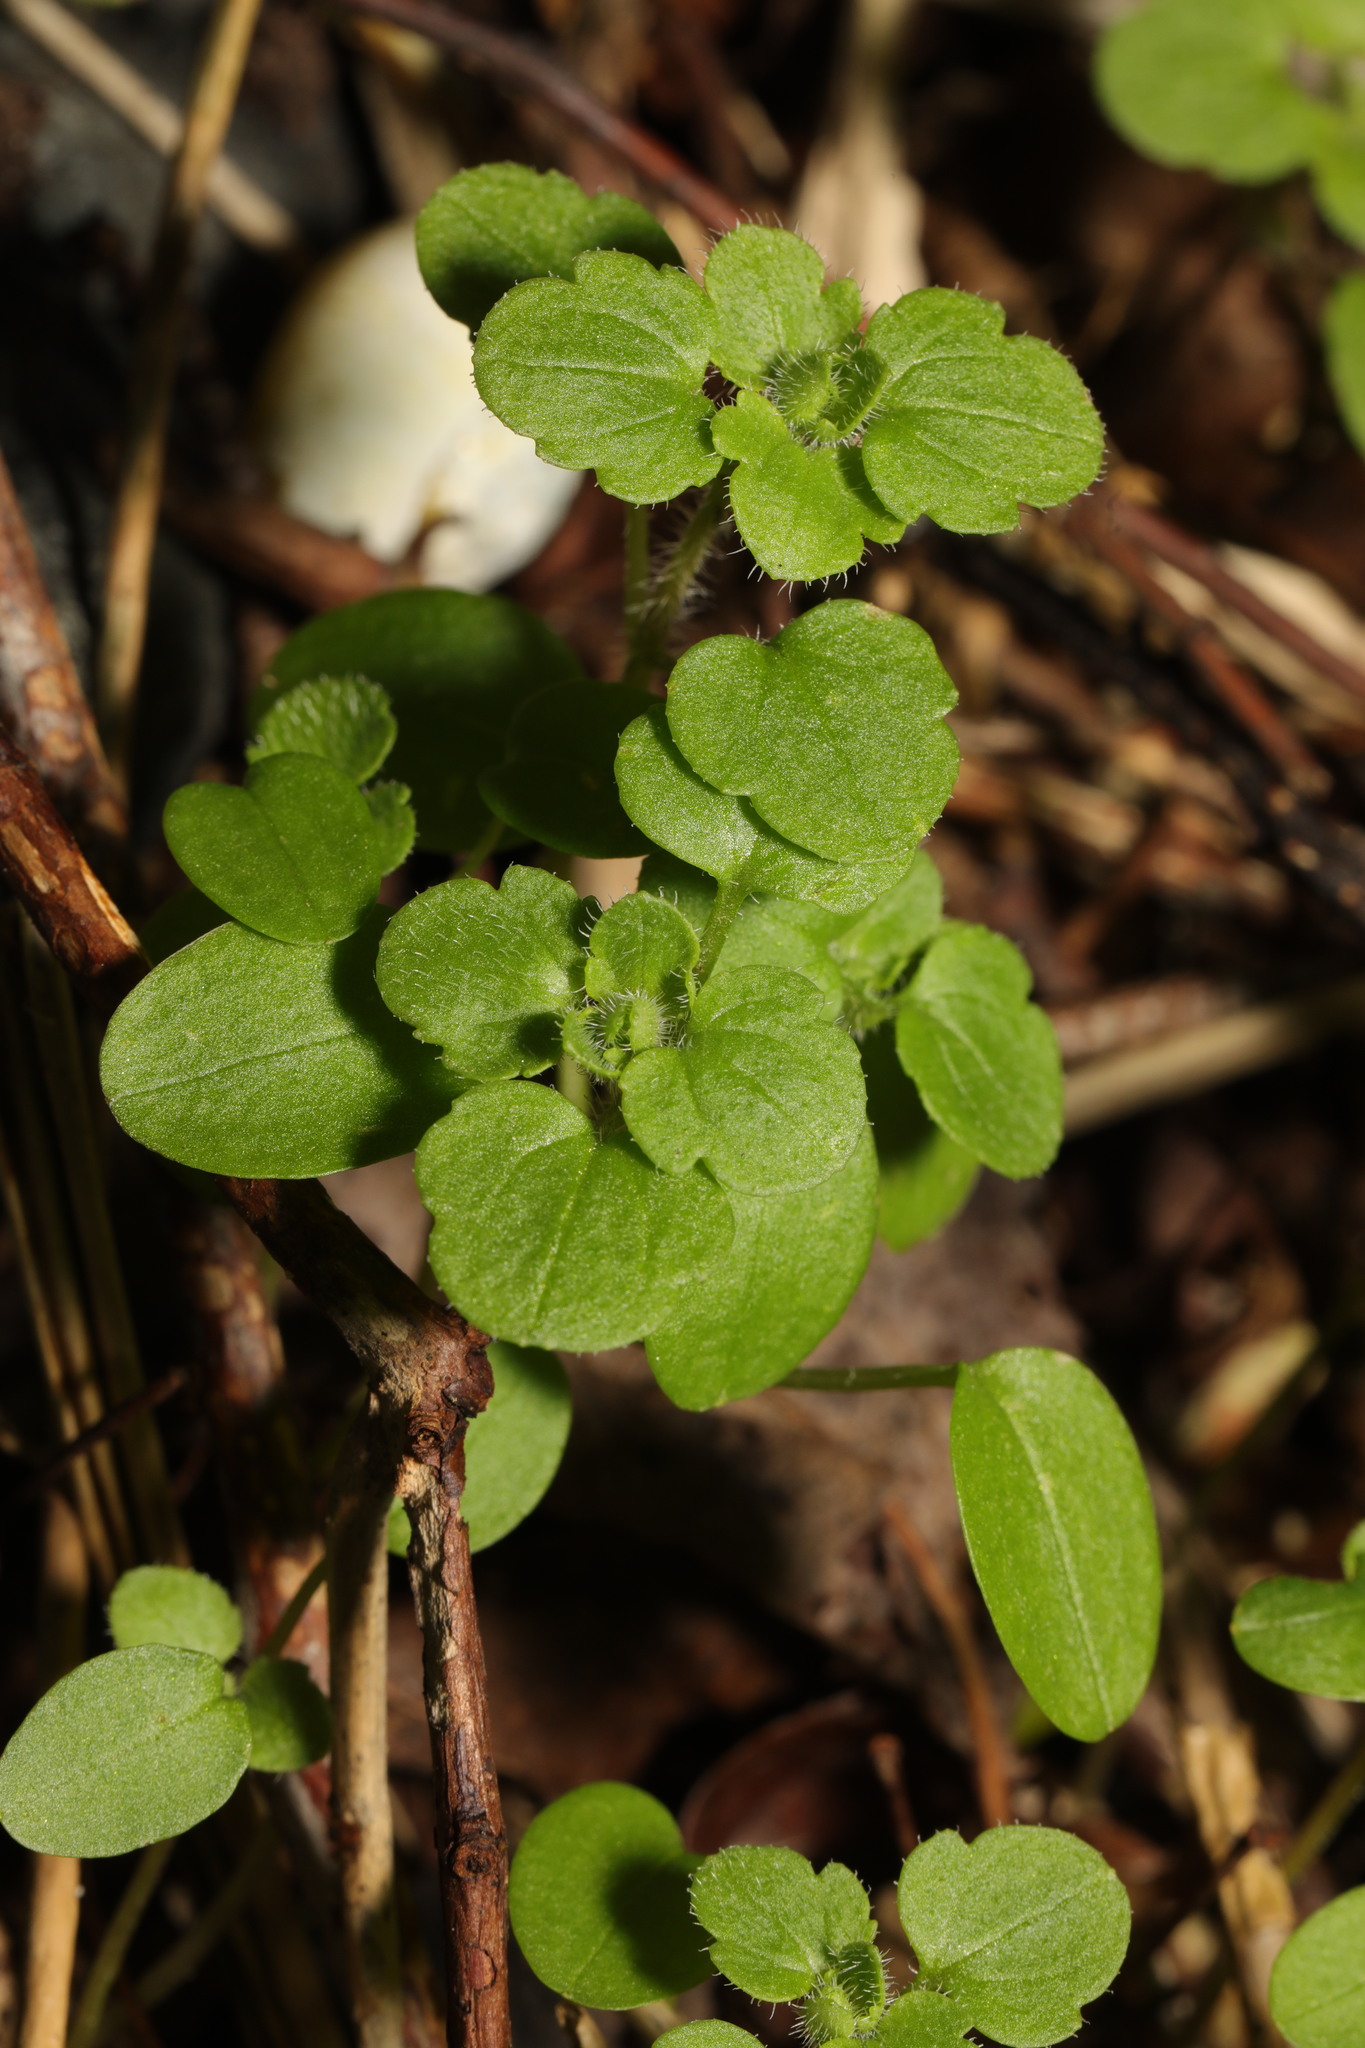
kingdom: Plantae
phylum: Tracheophyta
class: Magnoliopsida
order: Lamiales
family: Plantaginaceae
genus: Veronica
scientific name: Veronica hederifolia
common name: Ivy-leaved speedwell
